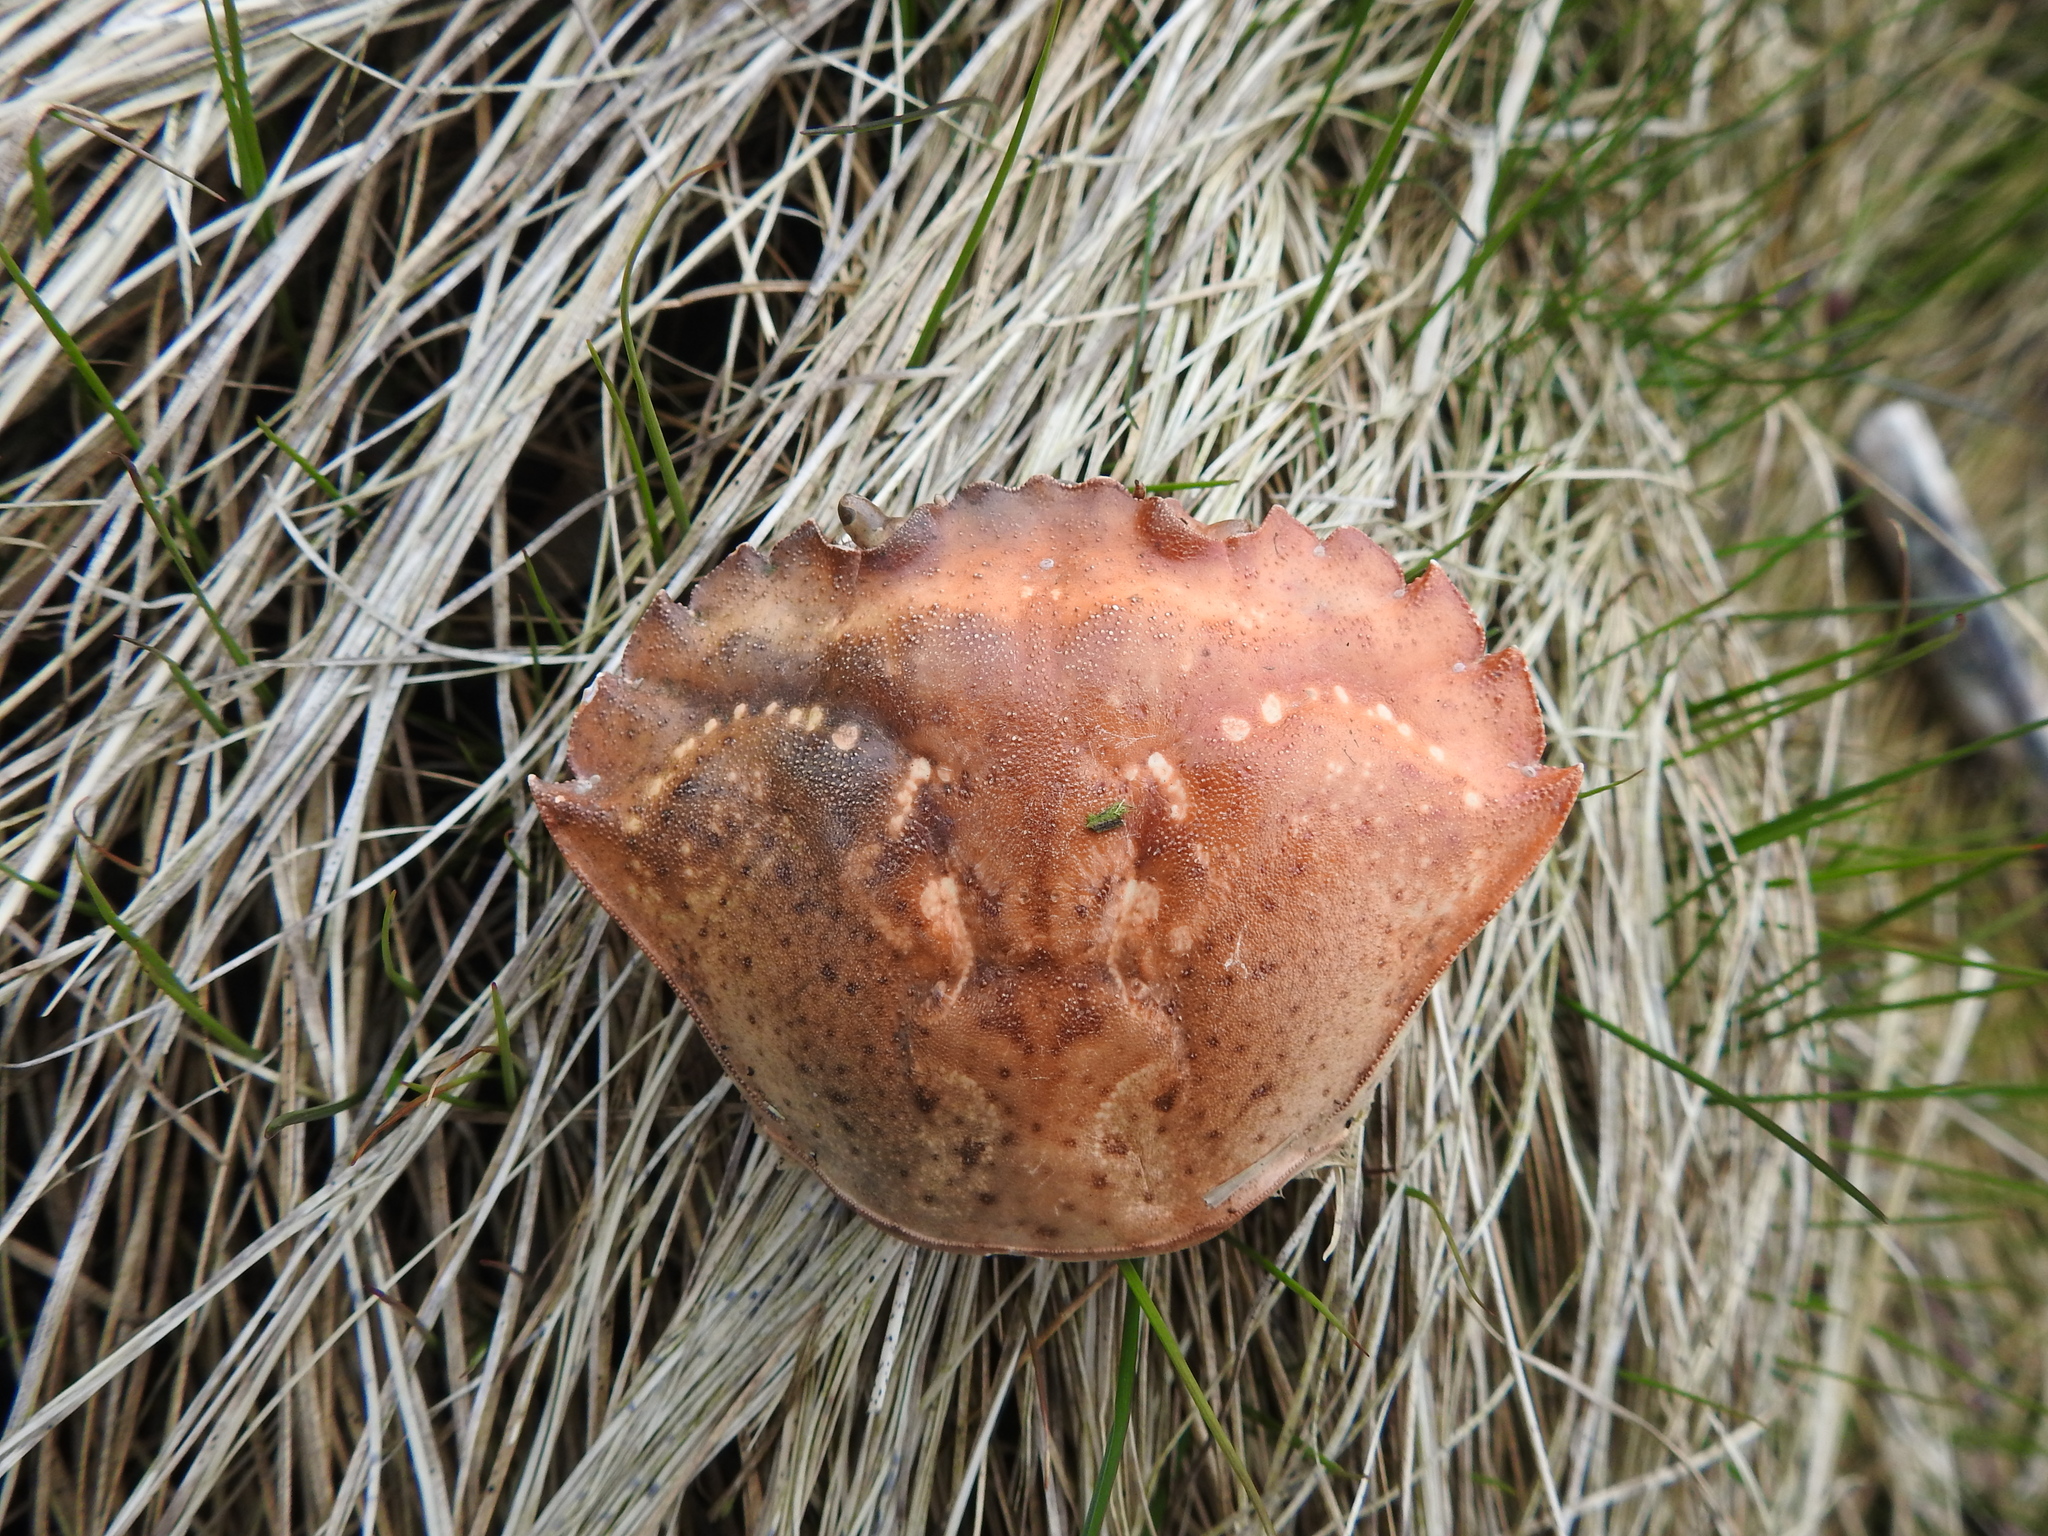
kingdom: Animalia
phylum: Arthropoda
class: Malacostraca
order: Decapoda
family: Carcinidae
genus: Carcinus
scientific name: Carcinus maenas
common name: European green crab
